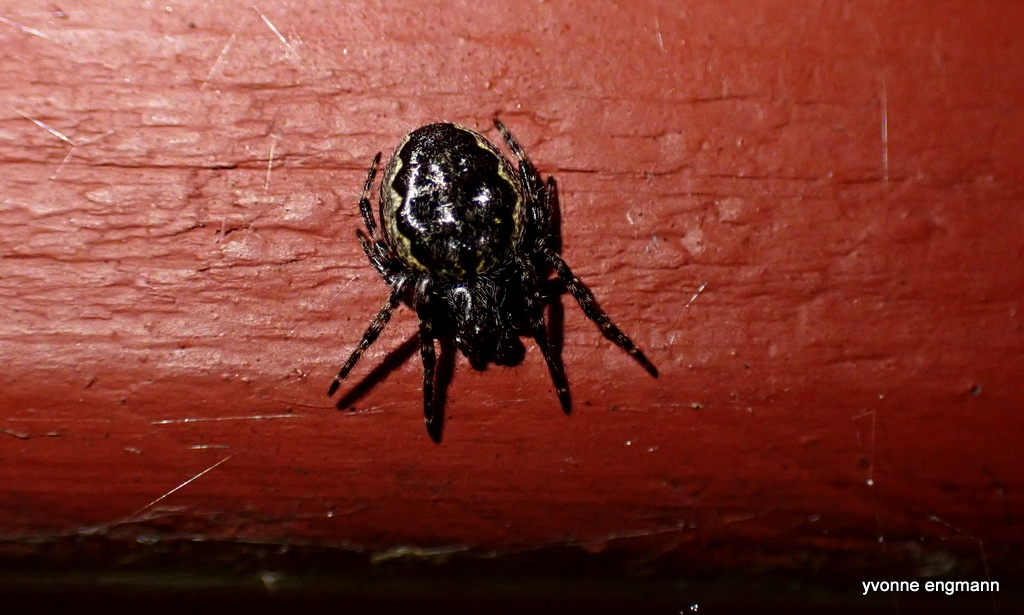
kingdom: Animalia
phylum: Arthropoda
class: Arachnida
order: Araneae
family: Araneidae
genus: Nuctenea
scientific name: Nuctenea umbratica
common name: Toad spider
